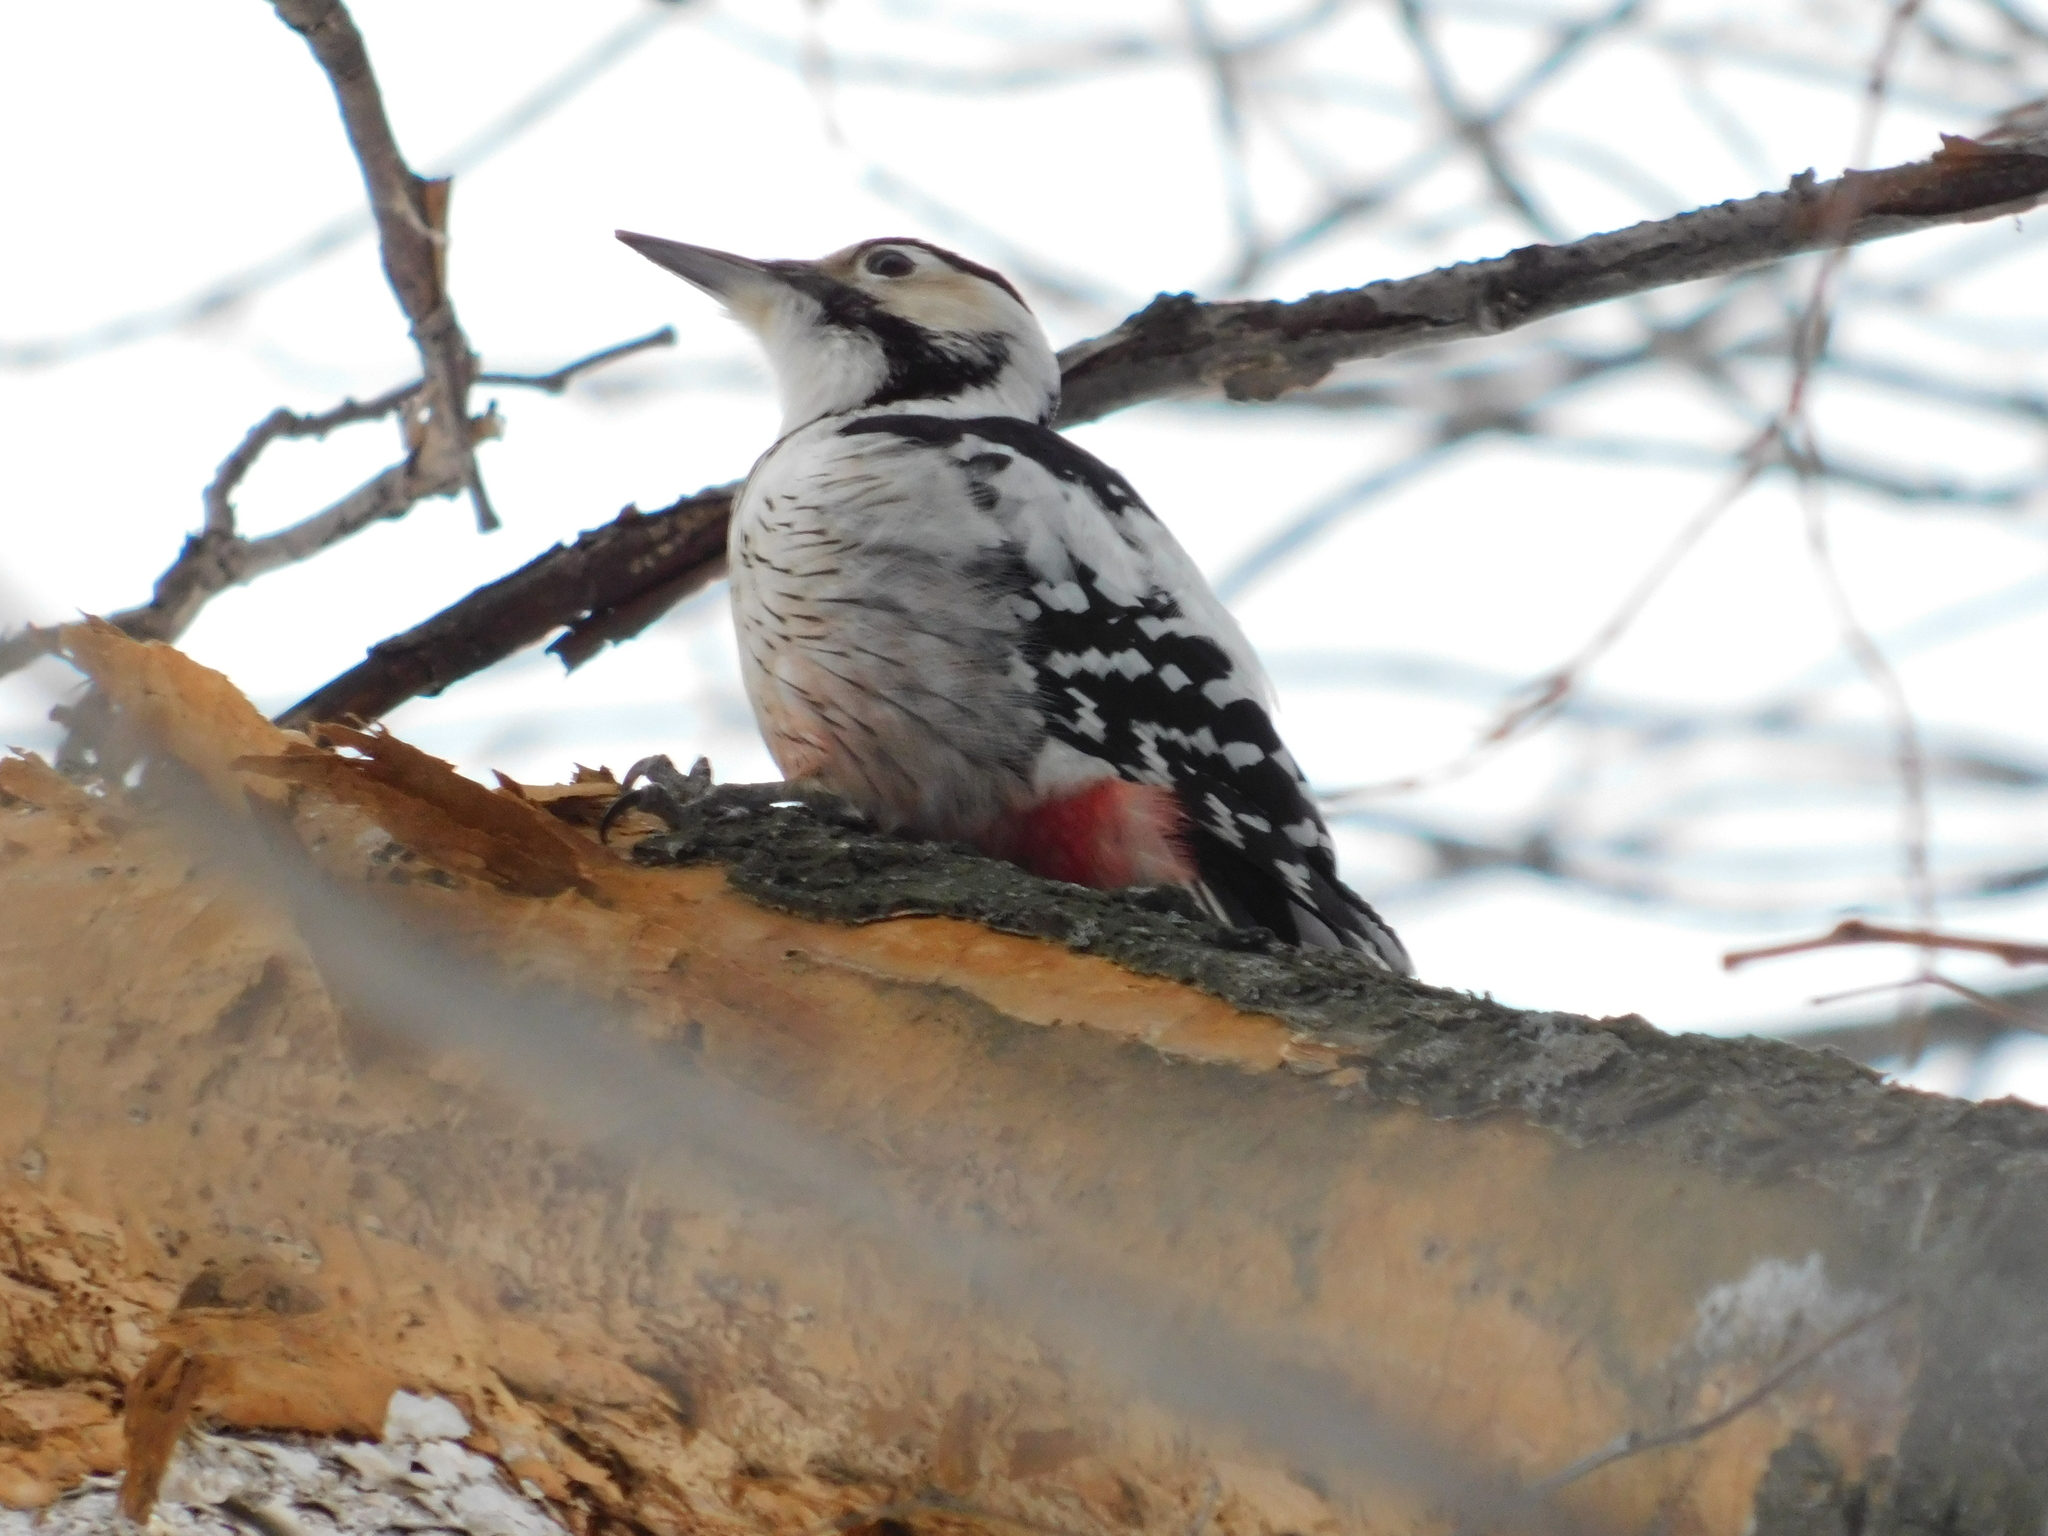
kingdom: Animalia
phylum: Chordata
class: Aves
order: Piciformes
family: Picidae
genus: Dendrocopos
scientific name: Dendrocopos leucotos
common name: White-backed woodpecker
